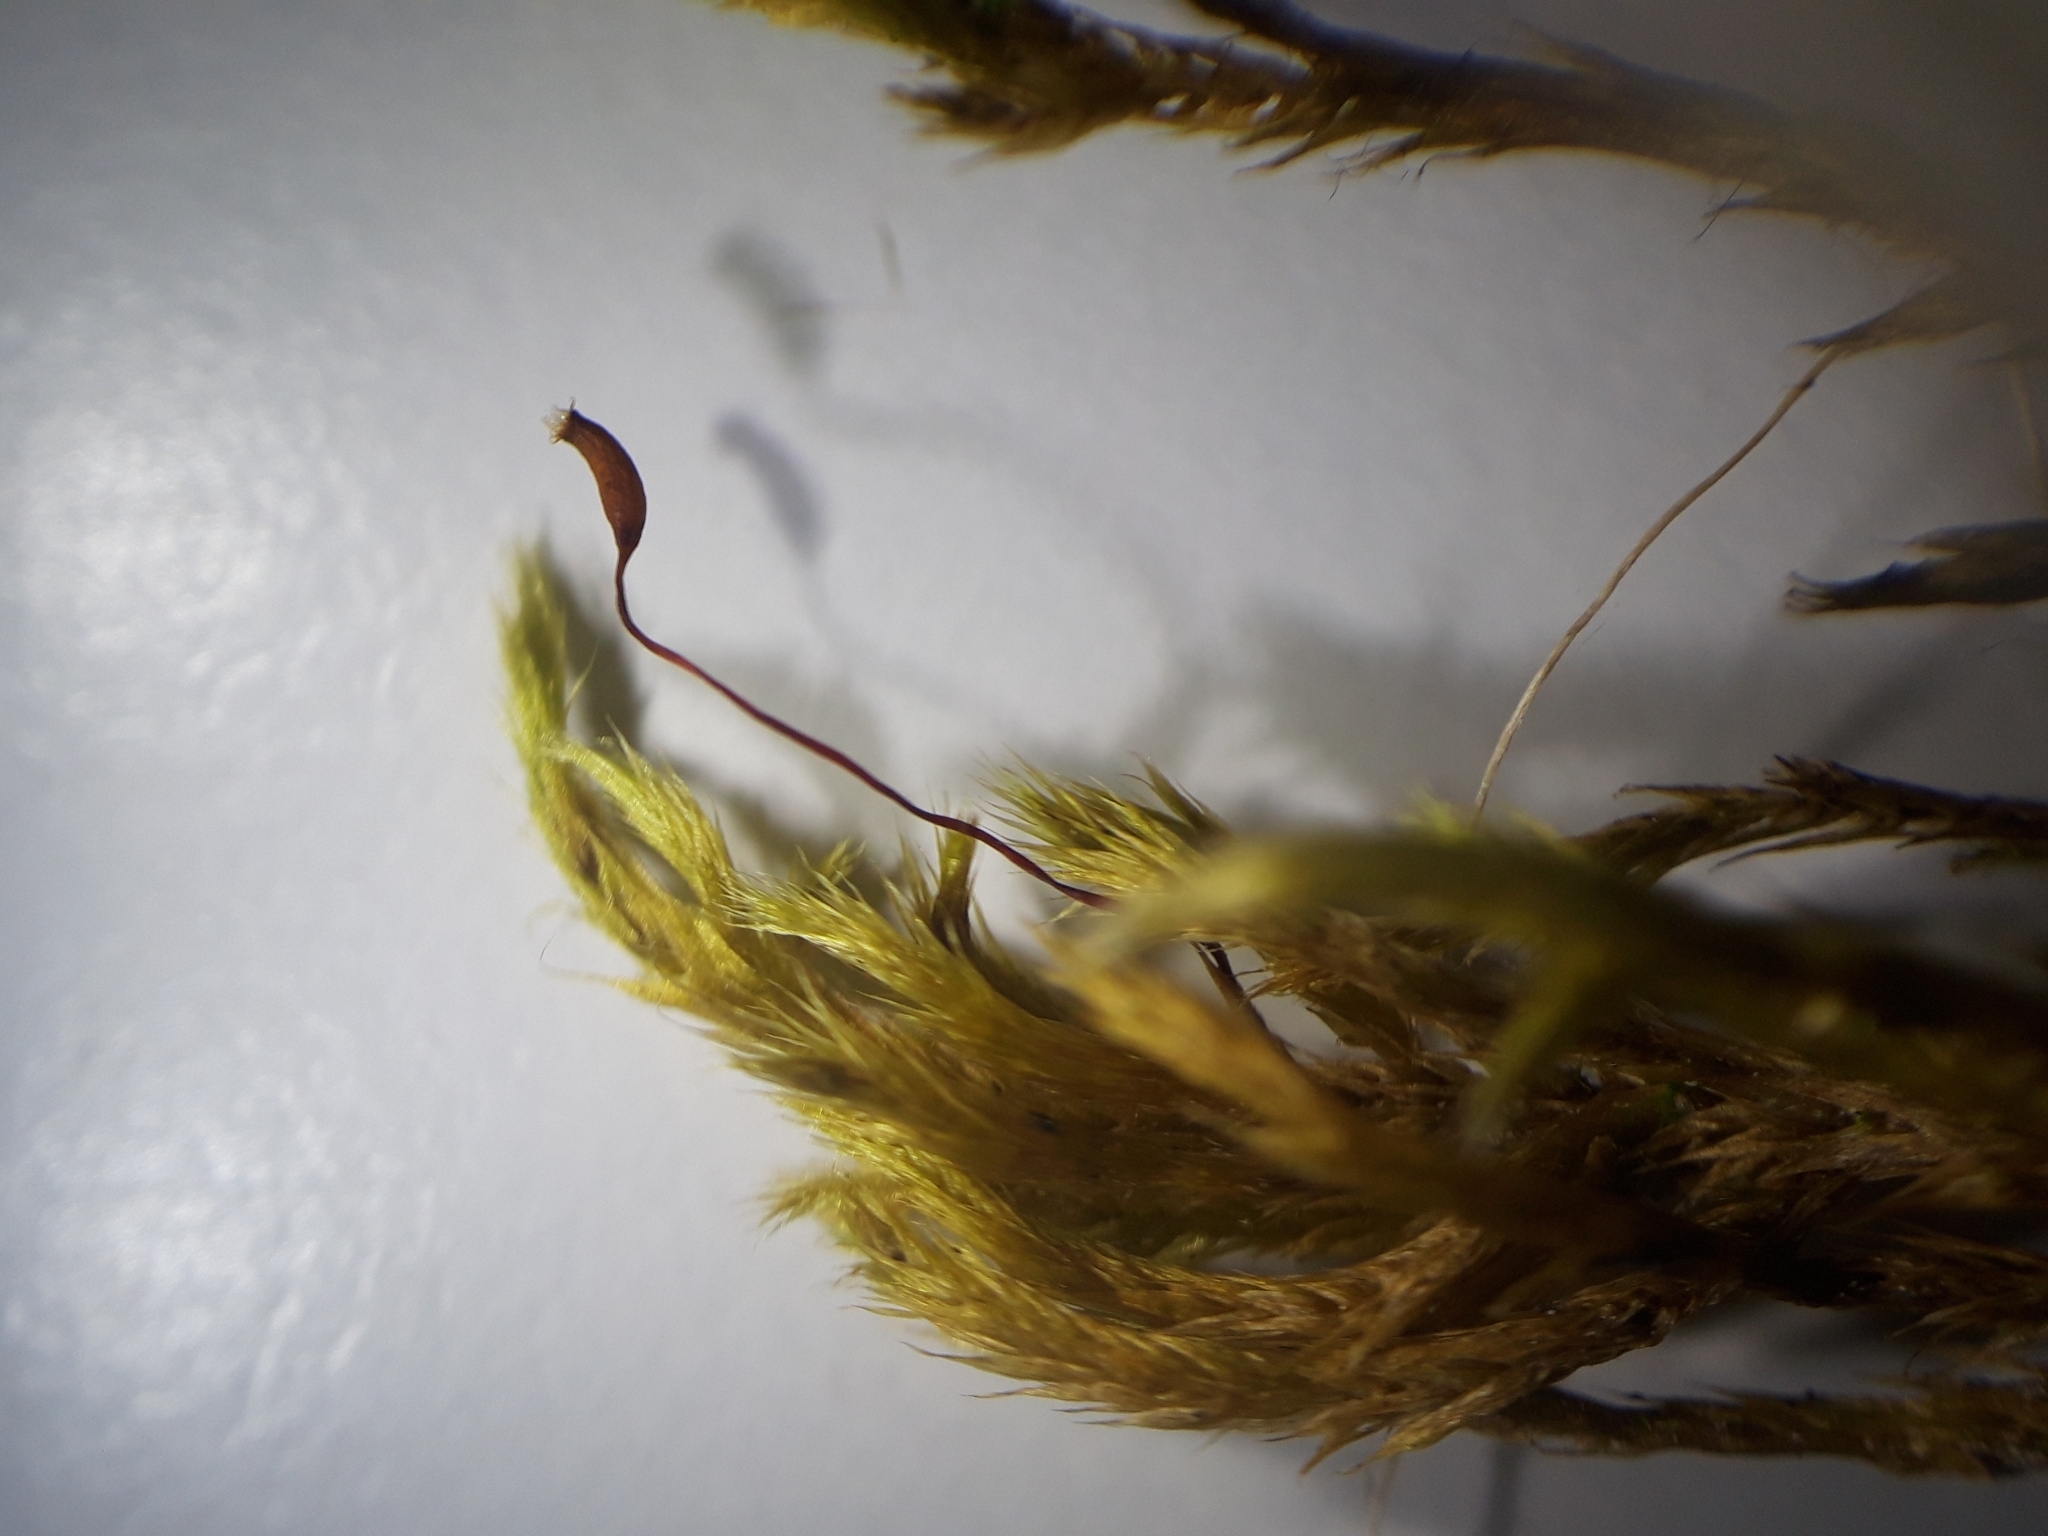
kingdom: Plantae
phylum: Bryophyta
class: Bryopsida
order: Hypnales
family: Brachytheciaceae
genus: Homalothecium
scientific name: Homalothecium lutescens
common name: Yellow feather-moss
